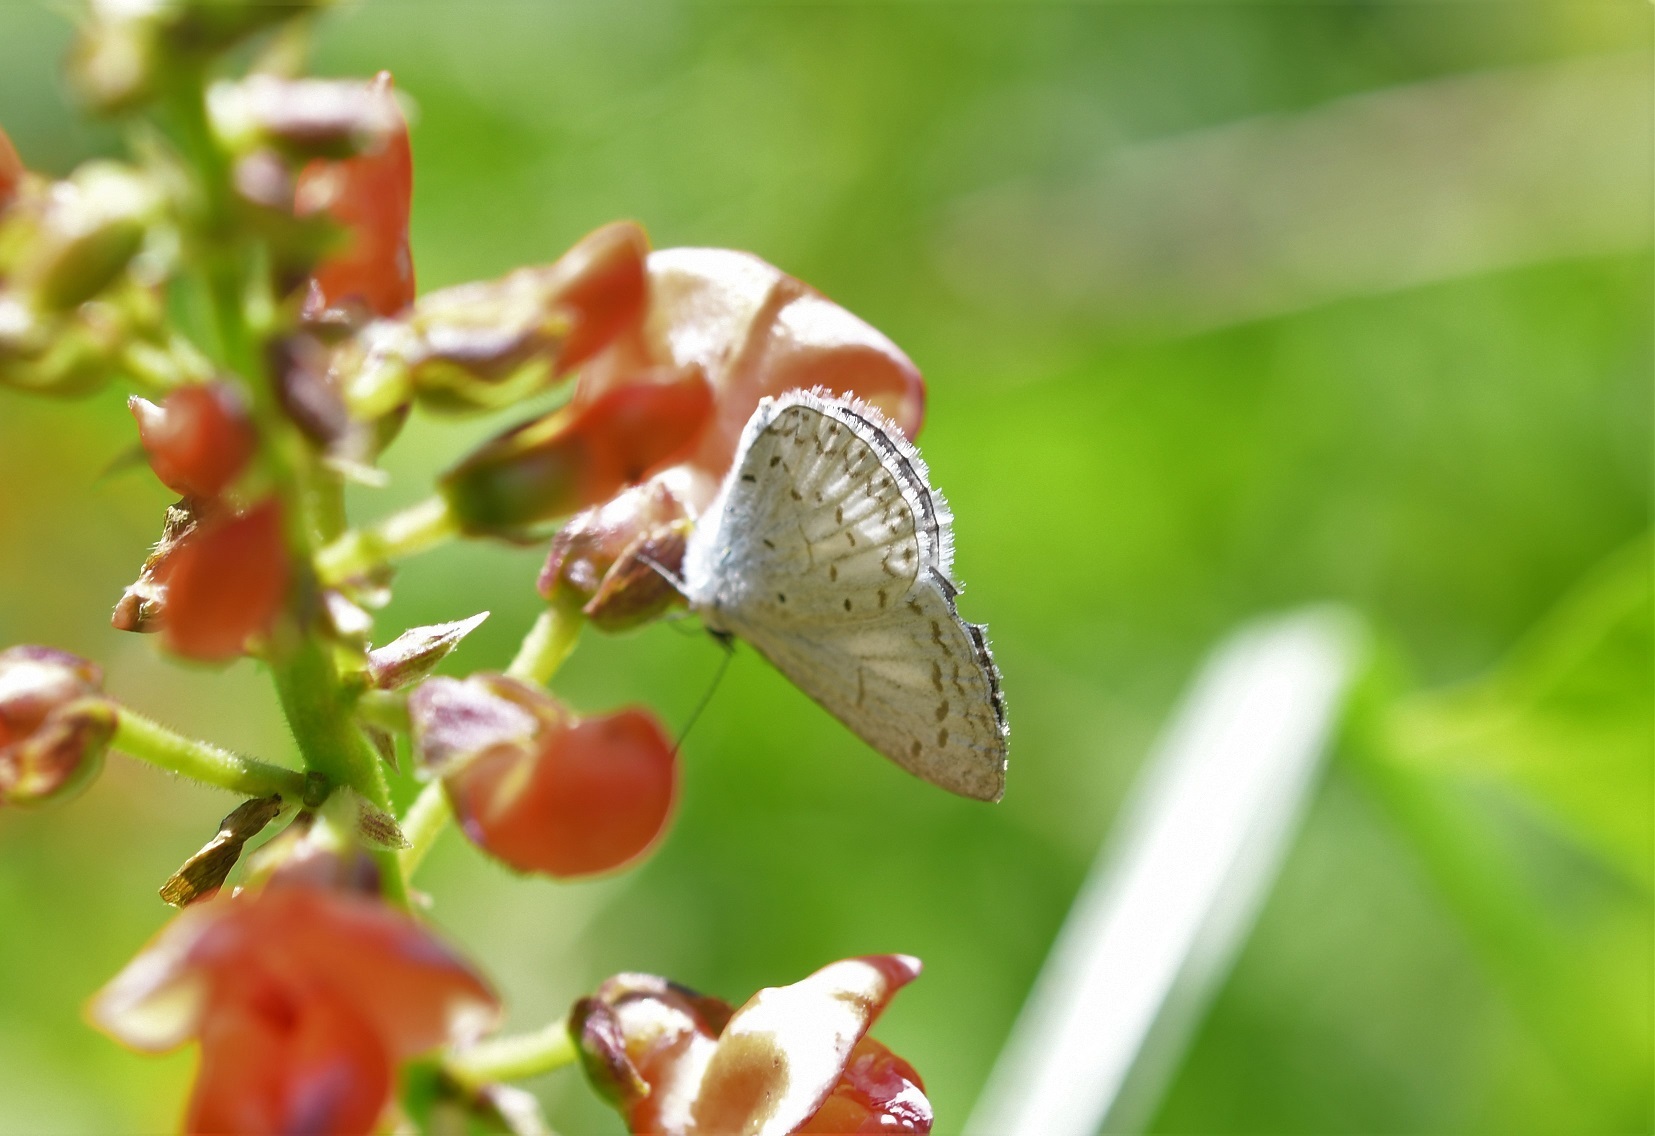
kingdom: Animalia
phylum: Arthropoda
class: Insecta
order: Lepidoptera
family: Lycaenidae
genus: Celastrina
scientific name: Celastrina ladon
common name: Spring azure
